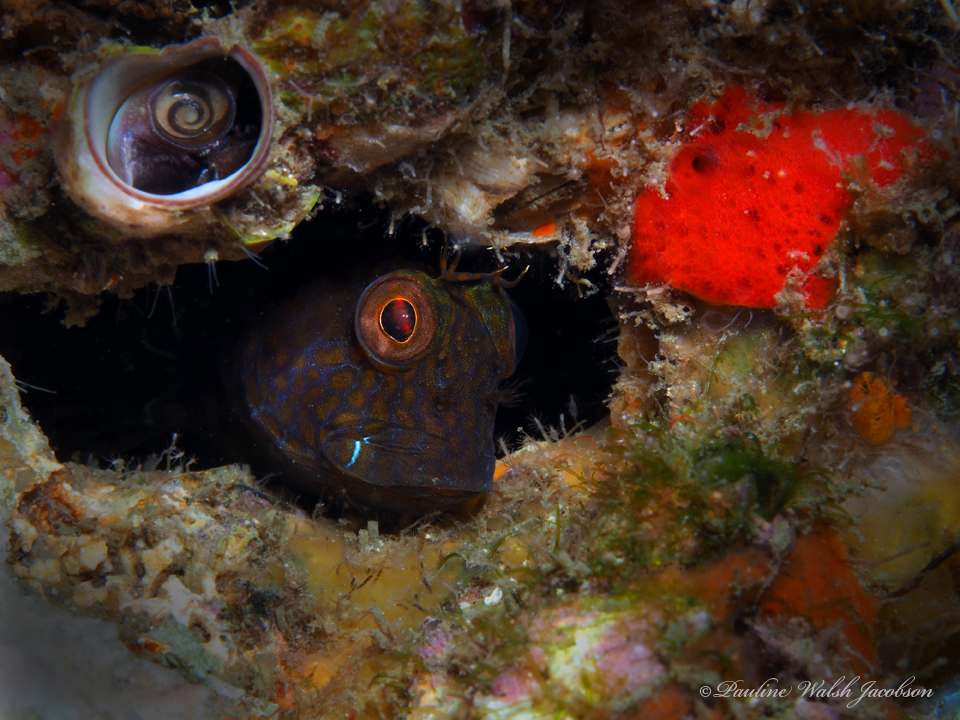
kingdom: Animalia
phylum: Chordata
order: Perciformes
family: Blenniidae
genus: Parablennius
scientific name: Parablennius marmoreus
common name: Seaweed blenny
